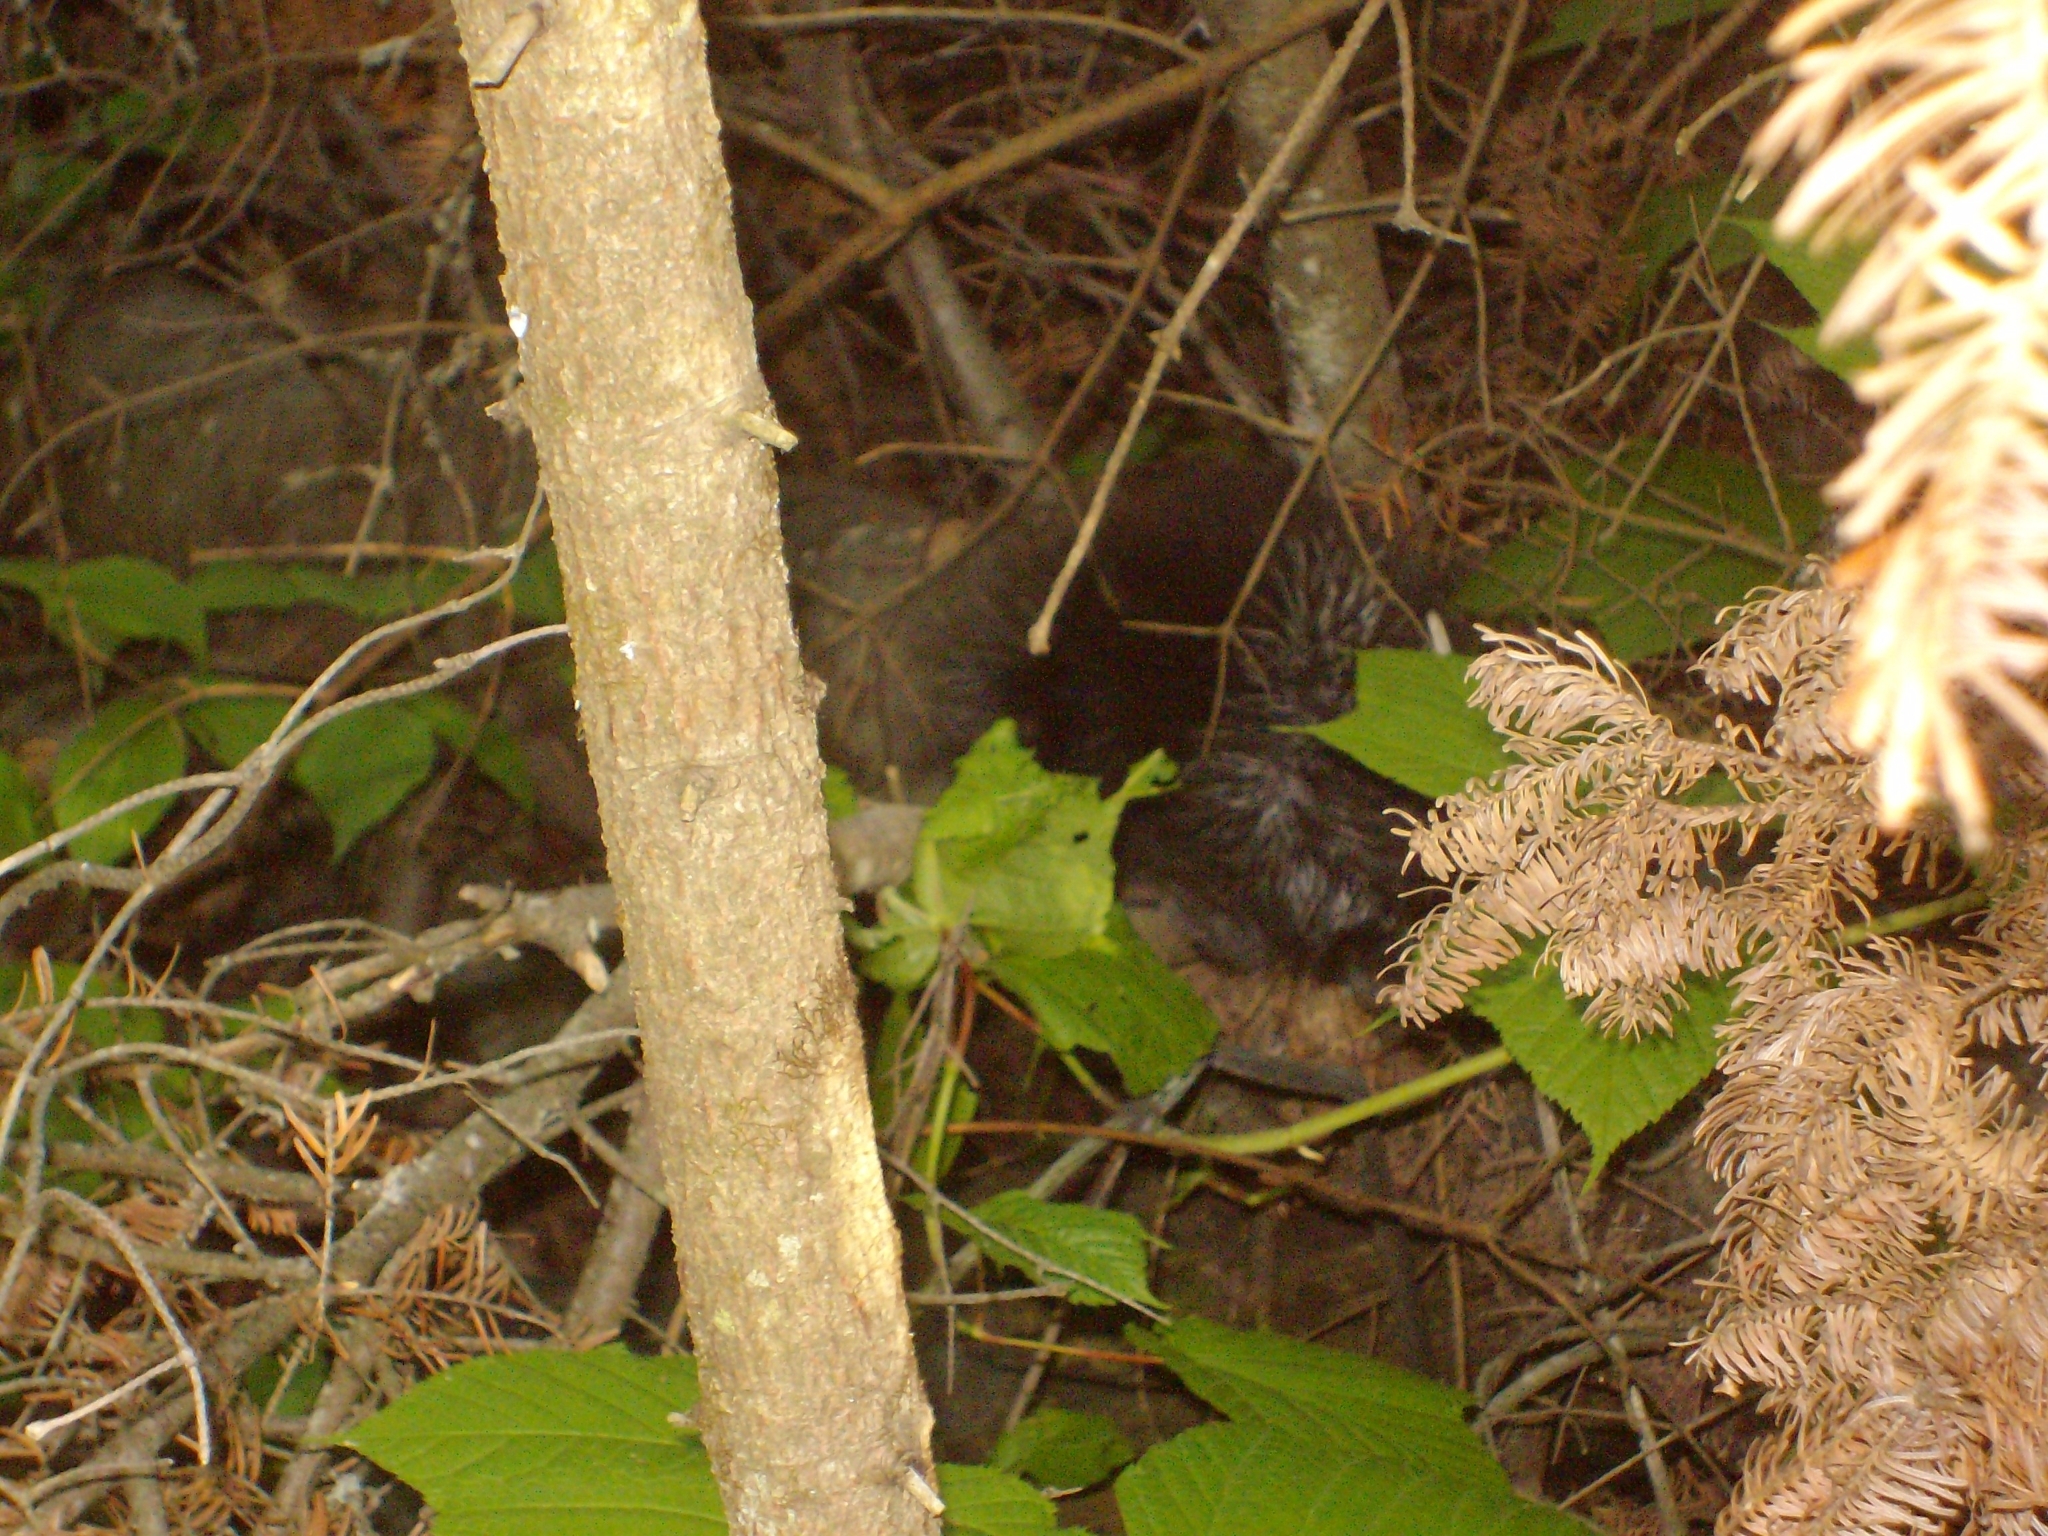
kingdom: Animalia
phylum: Chordata
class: Mammalia
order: Rodentia
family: Erethizontidae
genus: Erethizon
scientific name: Erethizon dorsatus
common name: North american porcupine
